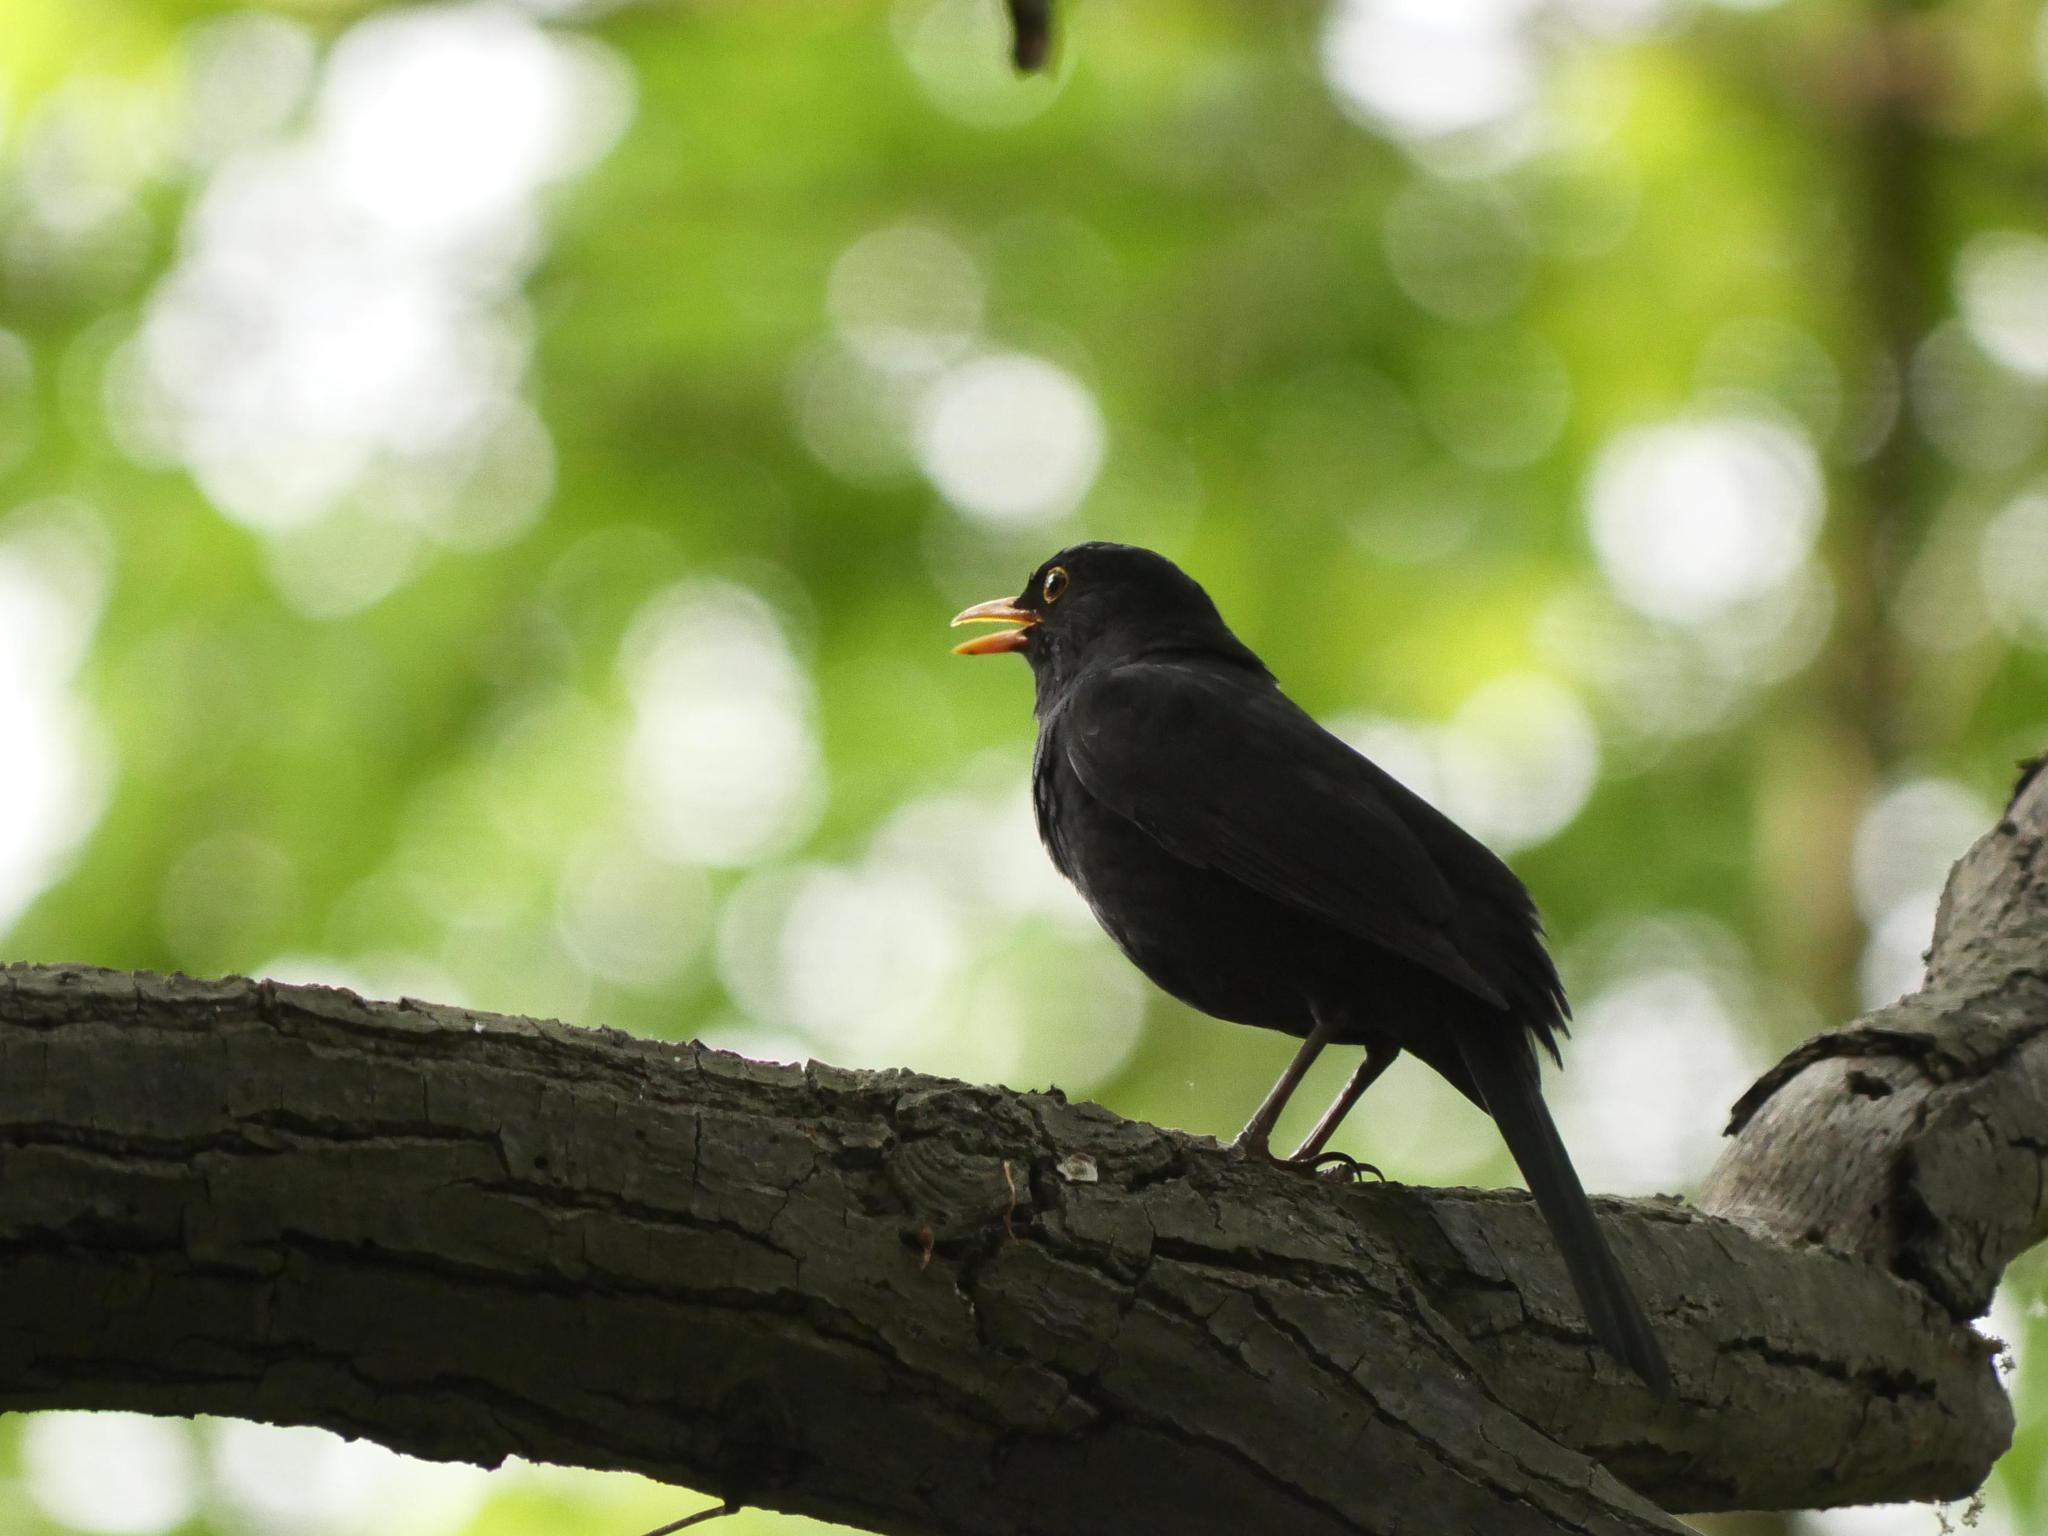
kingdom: Animalia
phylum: Chordata
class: Aves
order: Passeriformes
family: Turdidae
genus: Turdus
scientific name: Turdus merula
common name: Common blackbird
